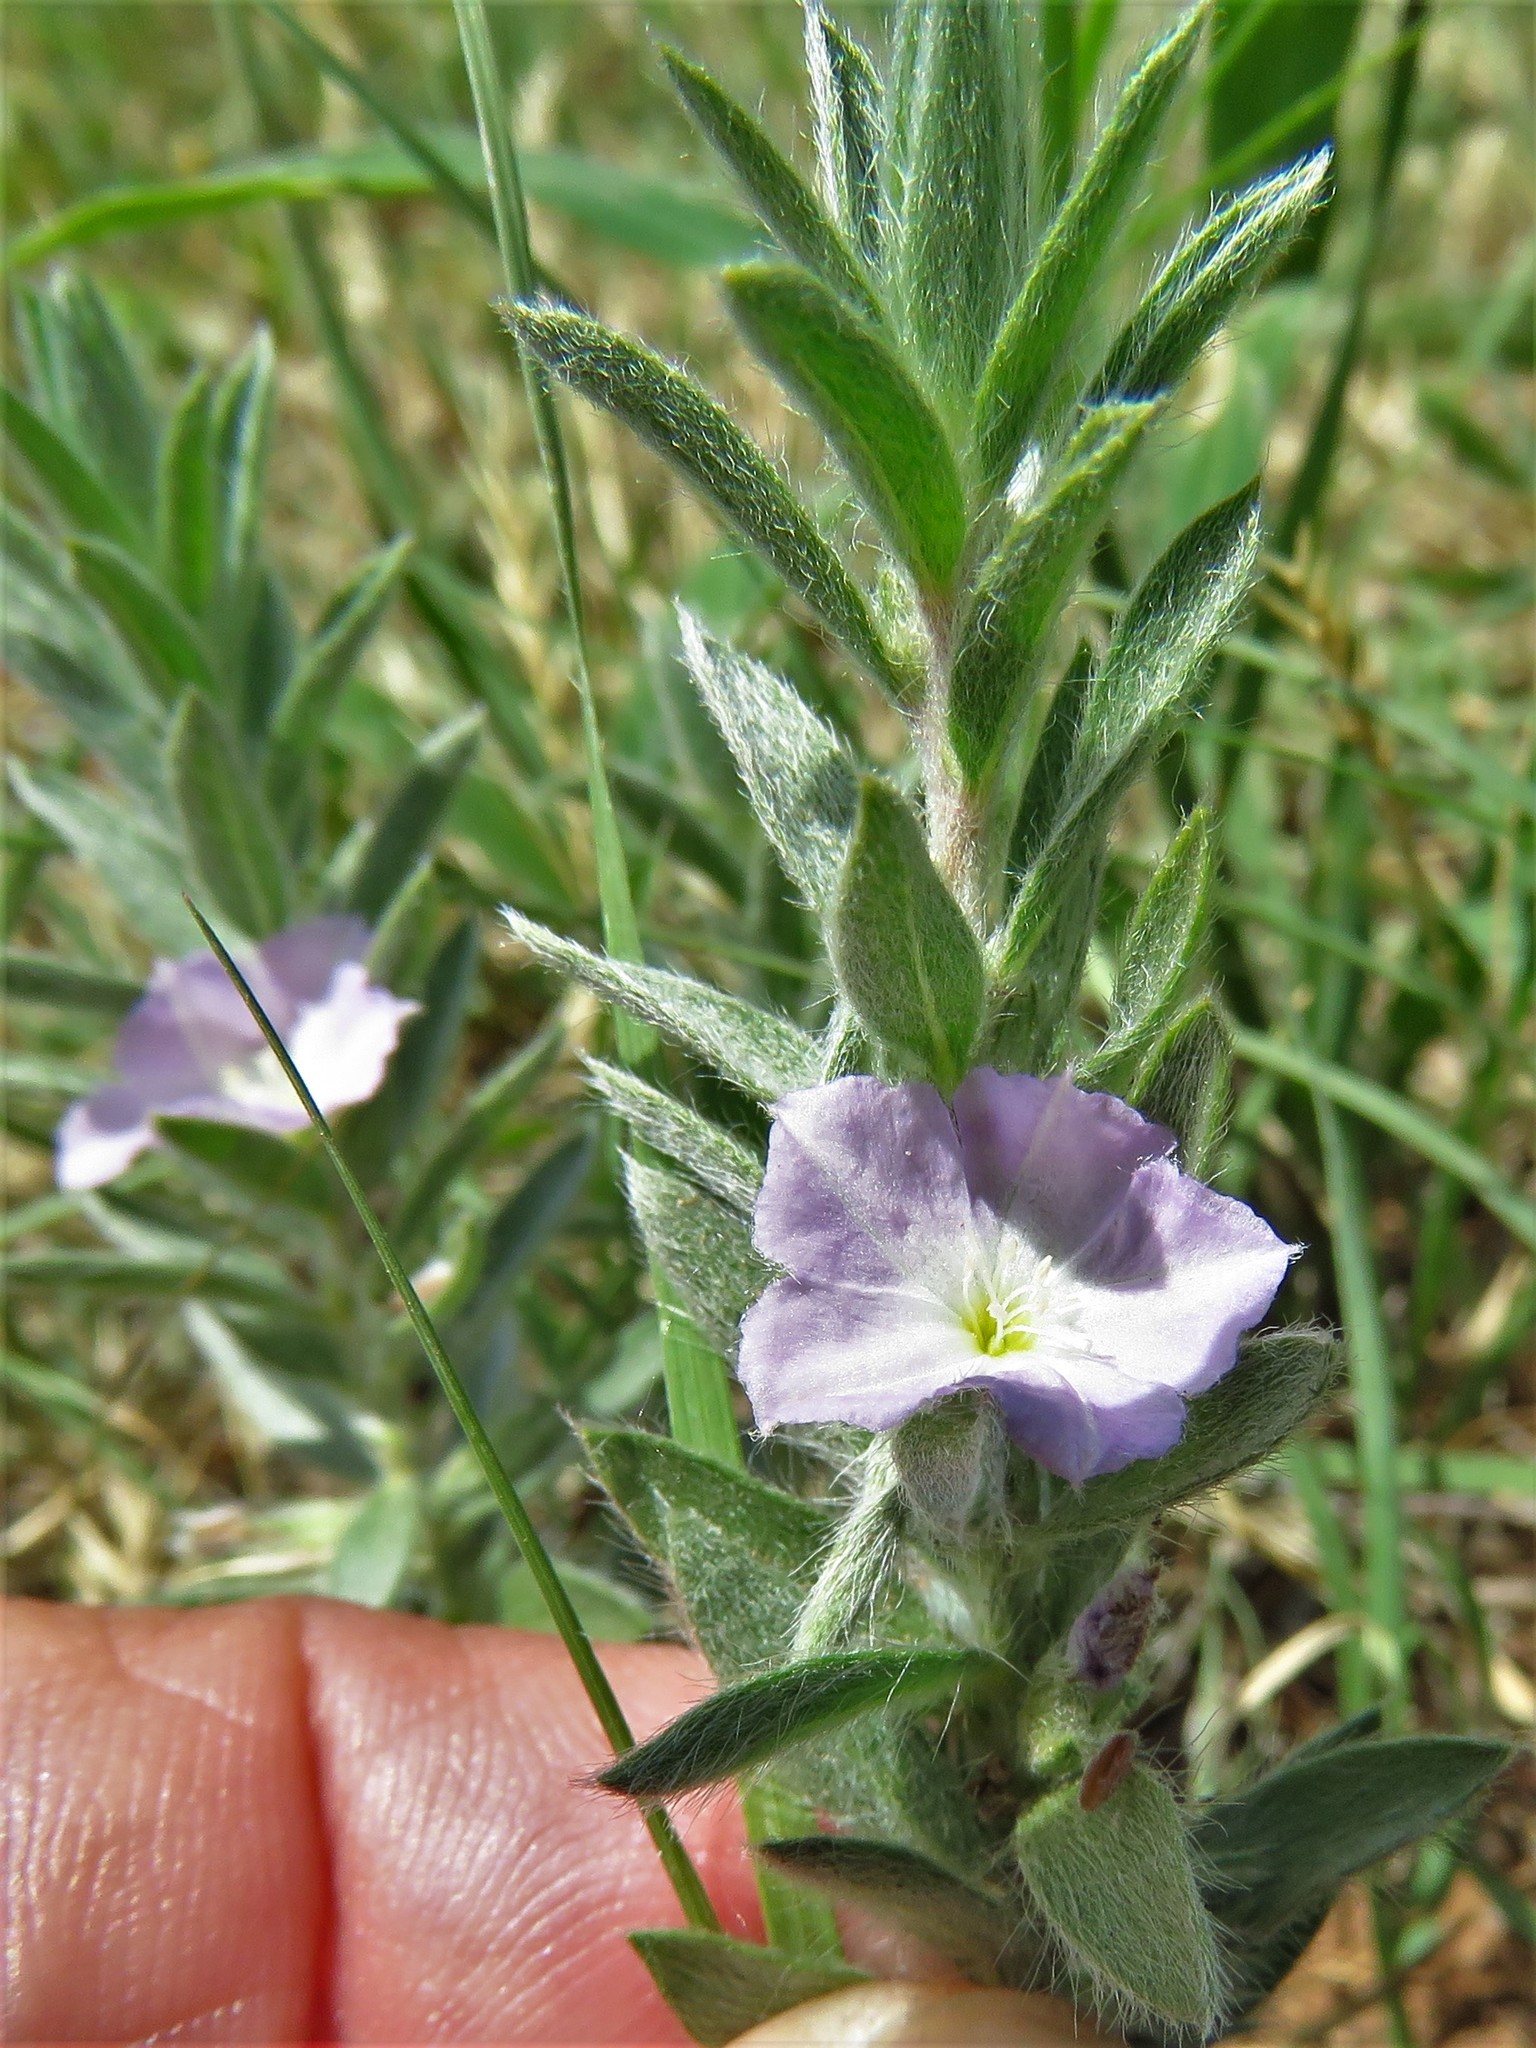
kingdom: Plantae
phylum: Tracheophyta
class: Magnoliopsida
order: Solanales
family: Convolvulaceae
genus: Evolvulus
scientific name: Evolvulus nuttallianus
